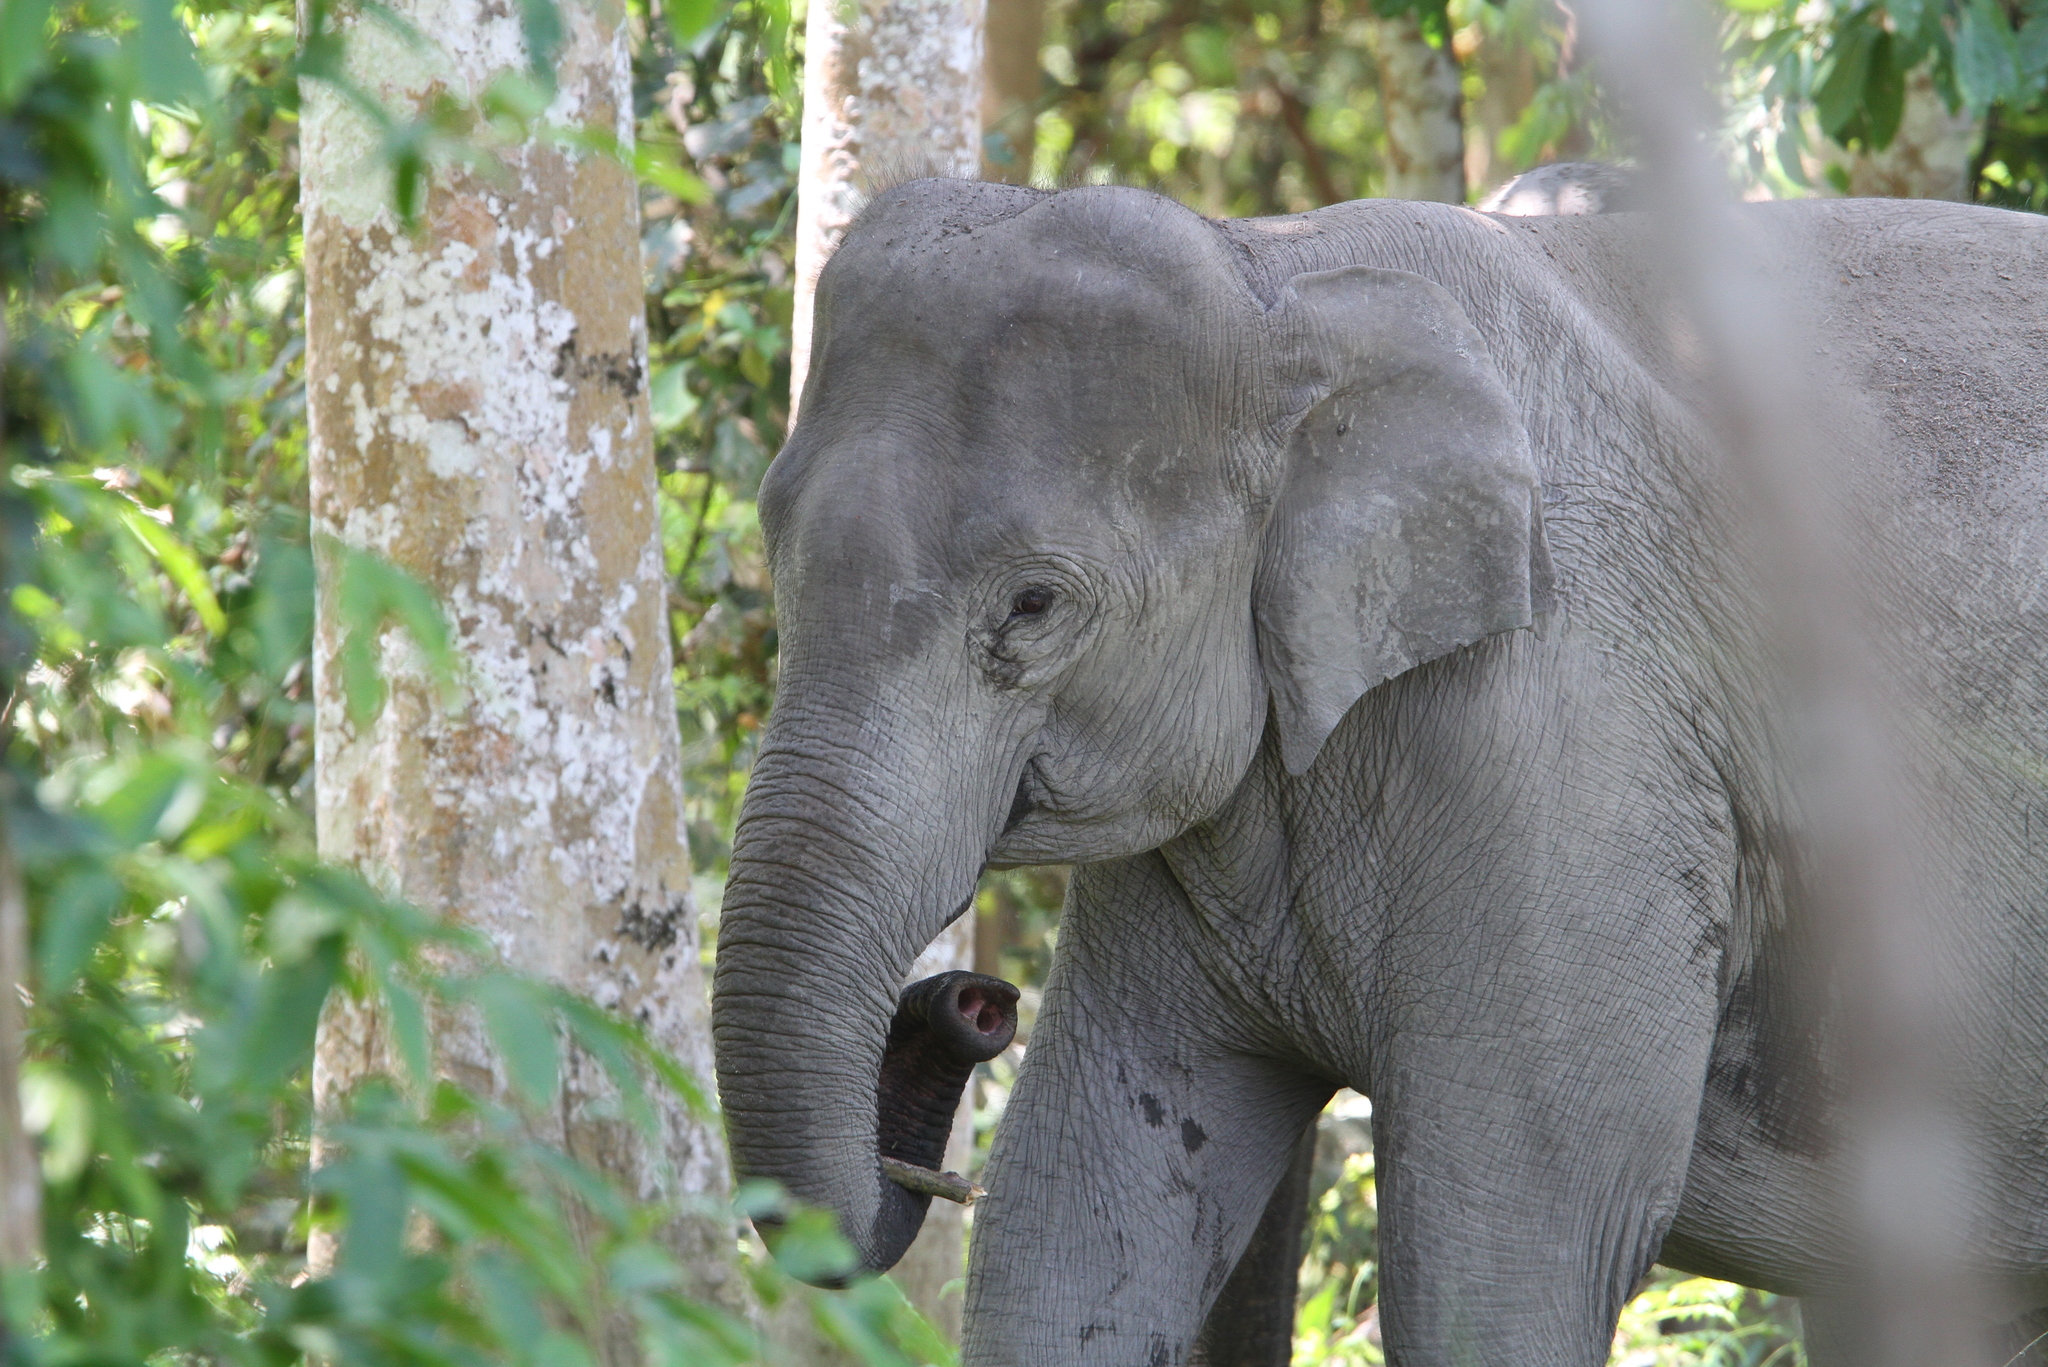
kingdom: Animalia
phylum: Chordata
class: Mammalia
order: Proboscidea
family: Elephantidae
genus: Elephas
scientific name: Elephas maximus
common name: Asian elephant
